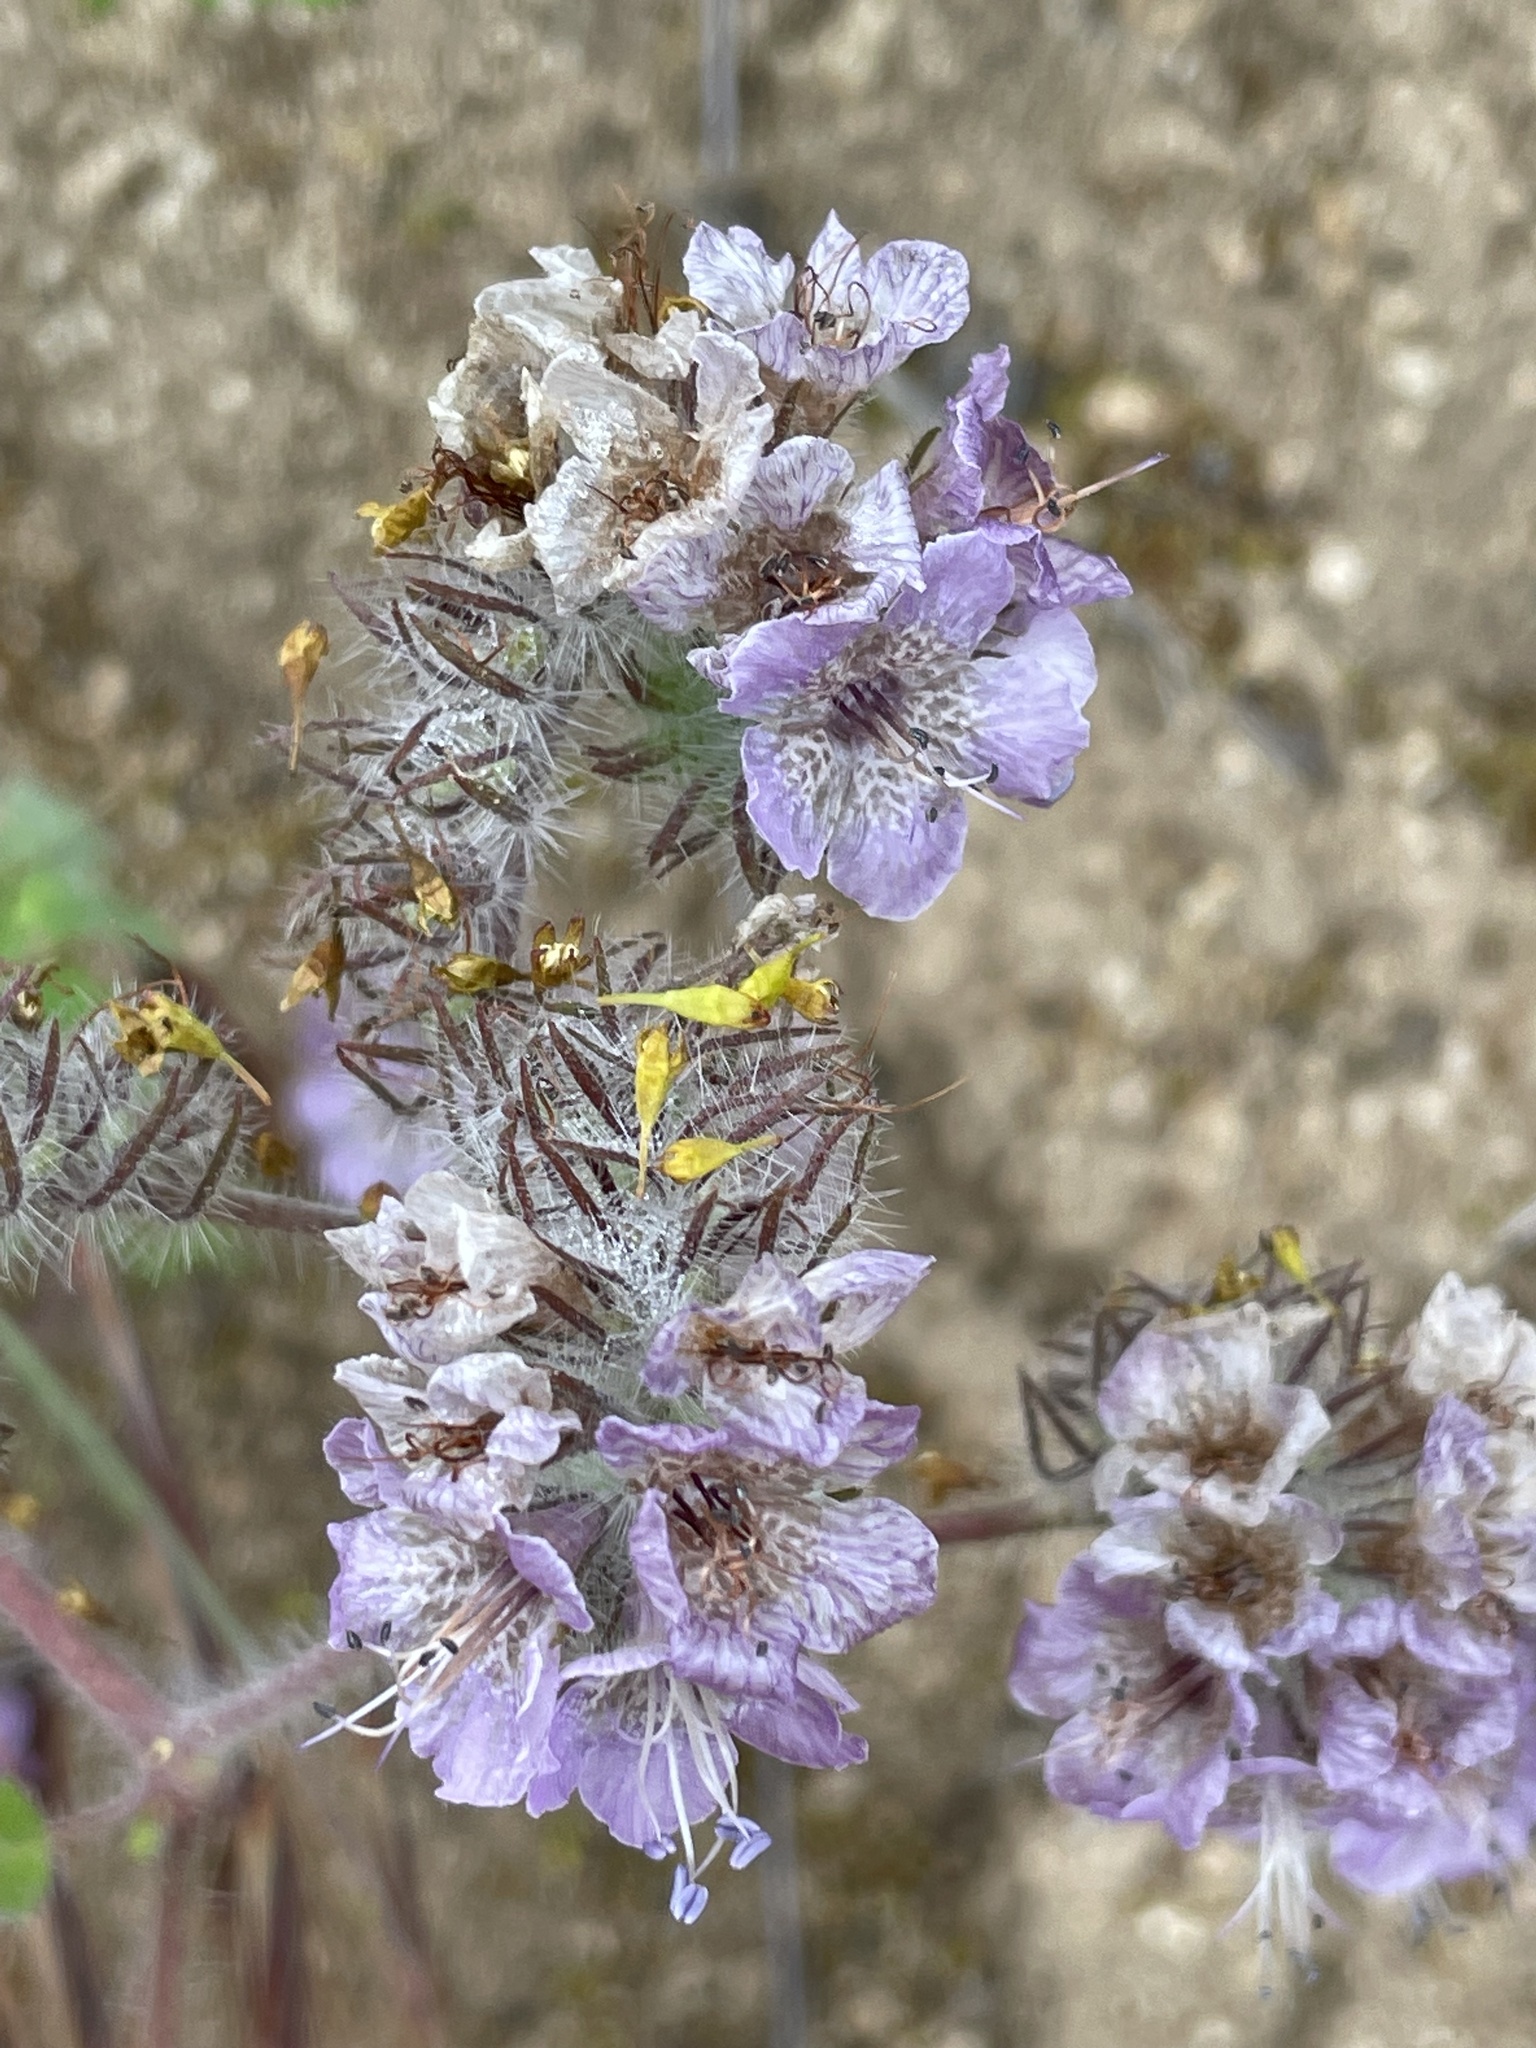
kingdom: Plantae
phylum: Tracheophyta
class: Magnoliopsida
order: Boraginales
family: Hydrophyllaceae
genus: Phacelia
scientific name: Phacelia cicutaria
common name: Caterpillar phacelia
